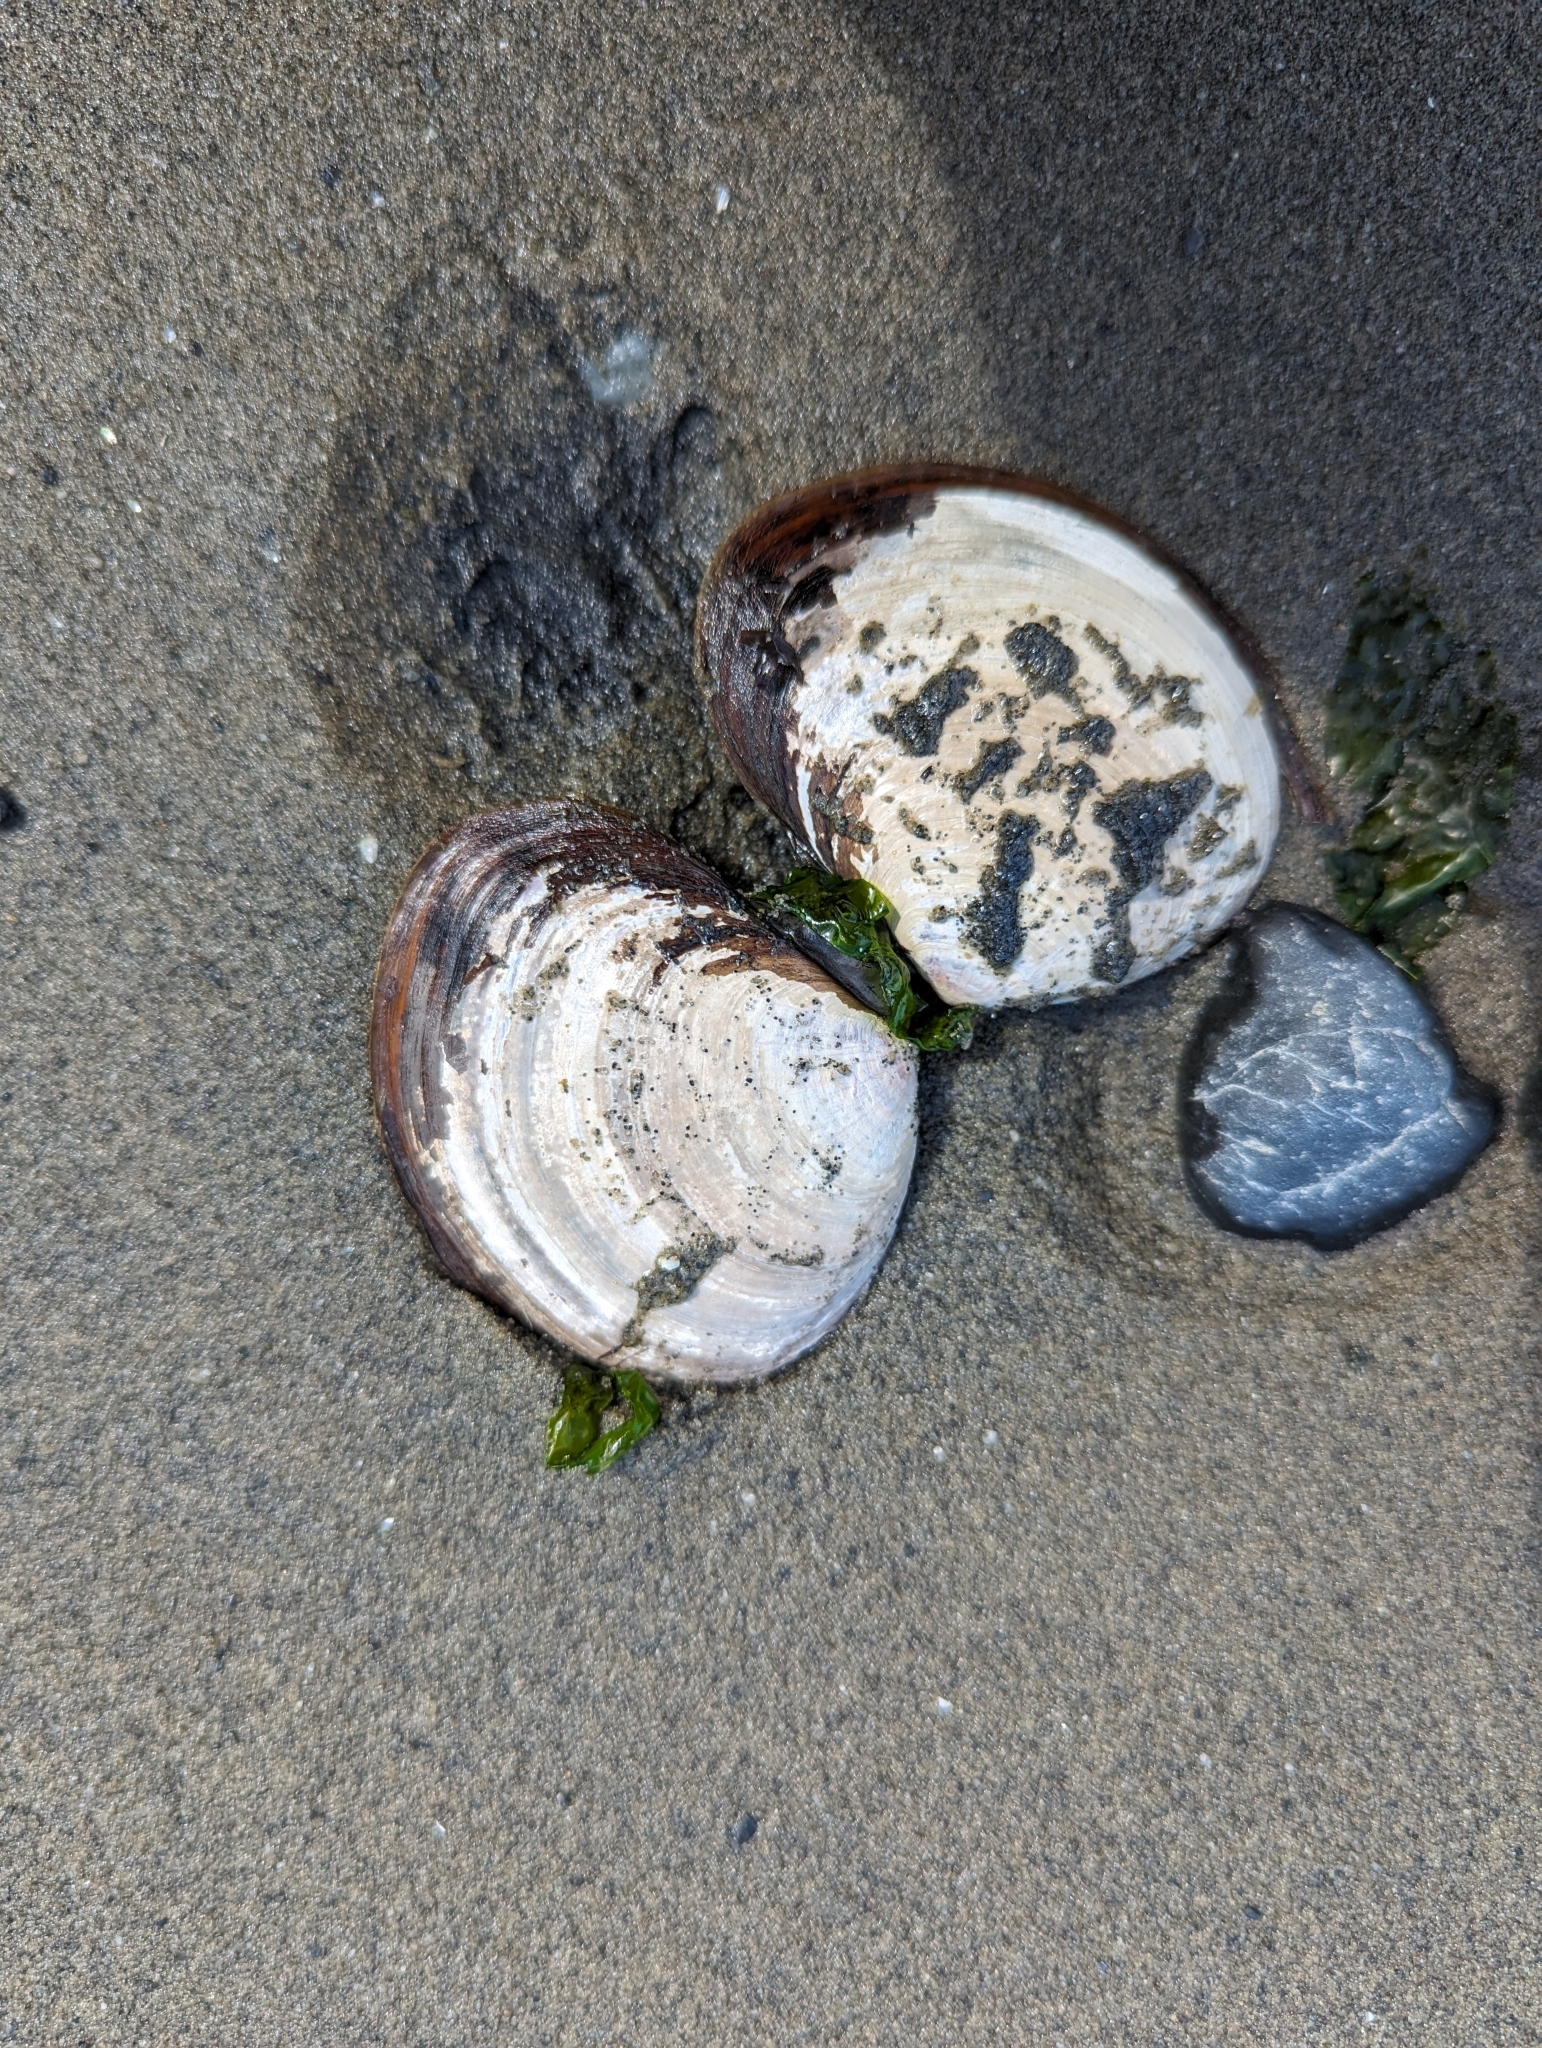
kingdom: Animalia
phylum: Mollusca
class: Bivalvia
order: Cardiida
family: Psammobiidae
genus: Nuttallia
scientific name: Nuttallia obscurata
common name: Purple mahogany-clam
